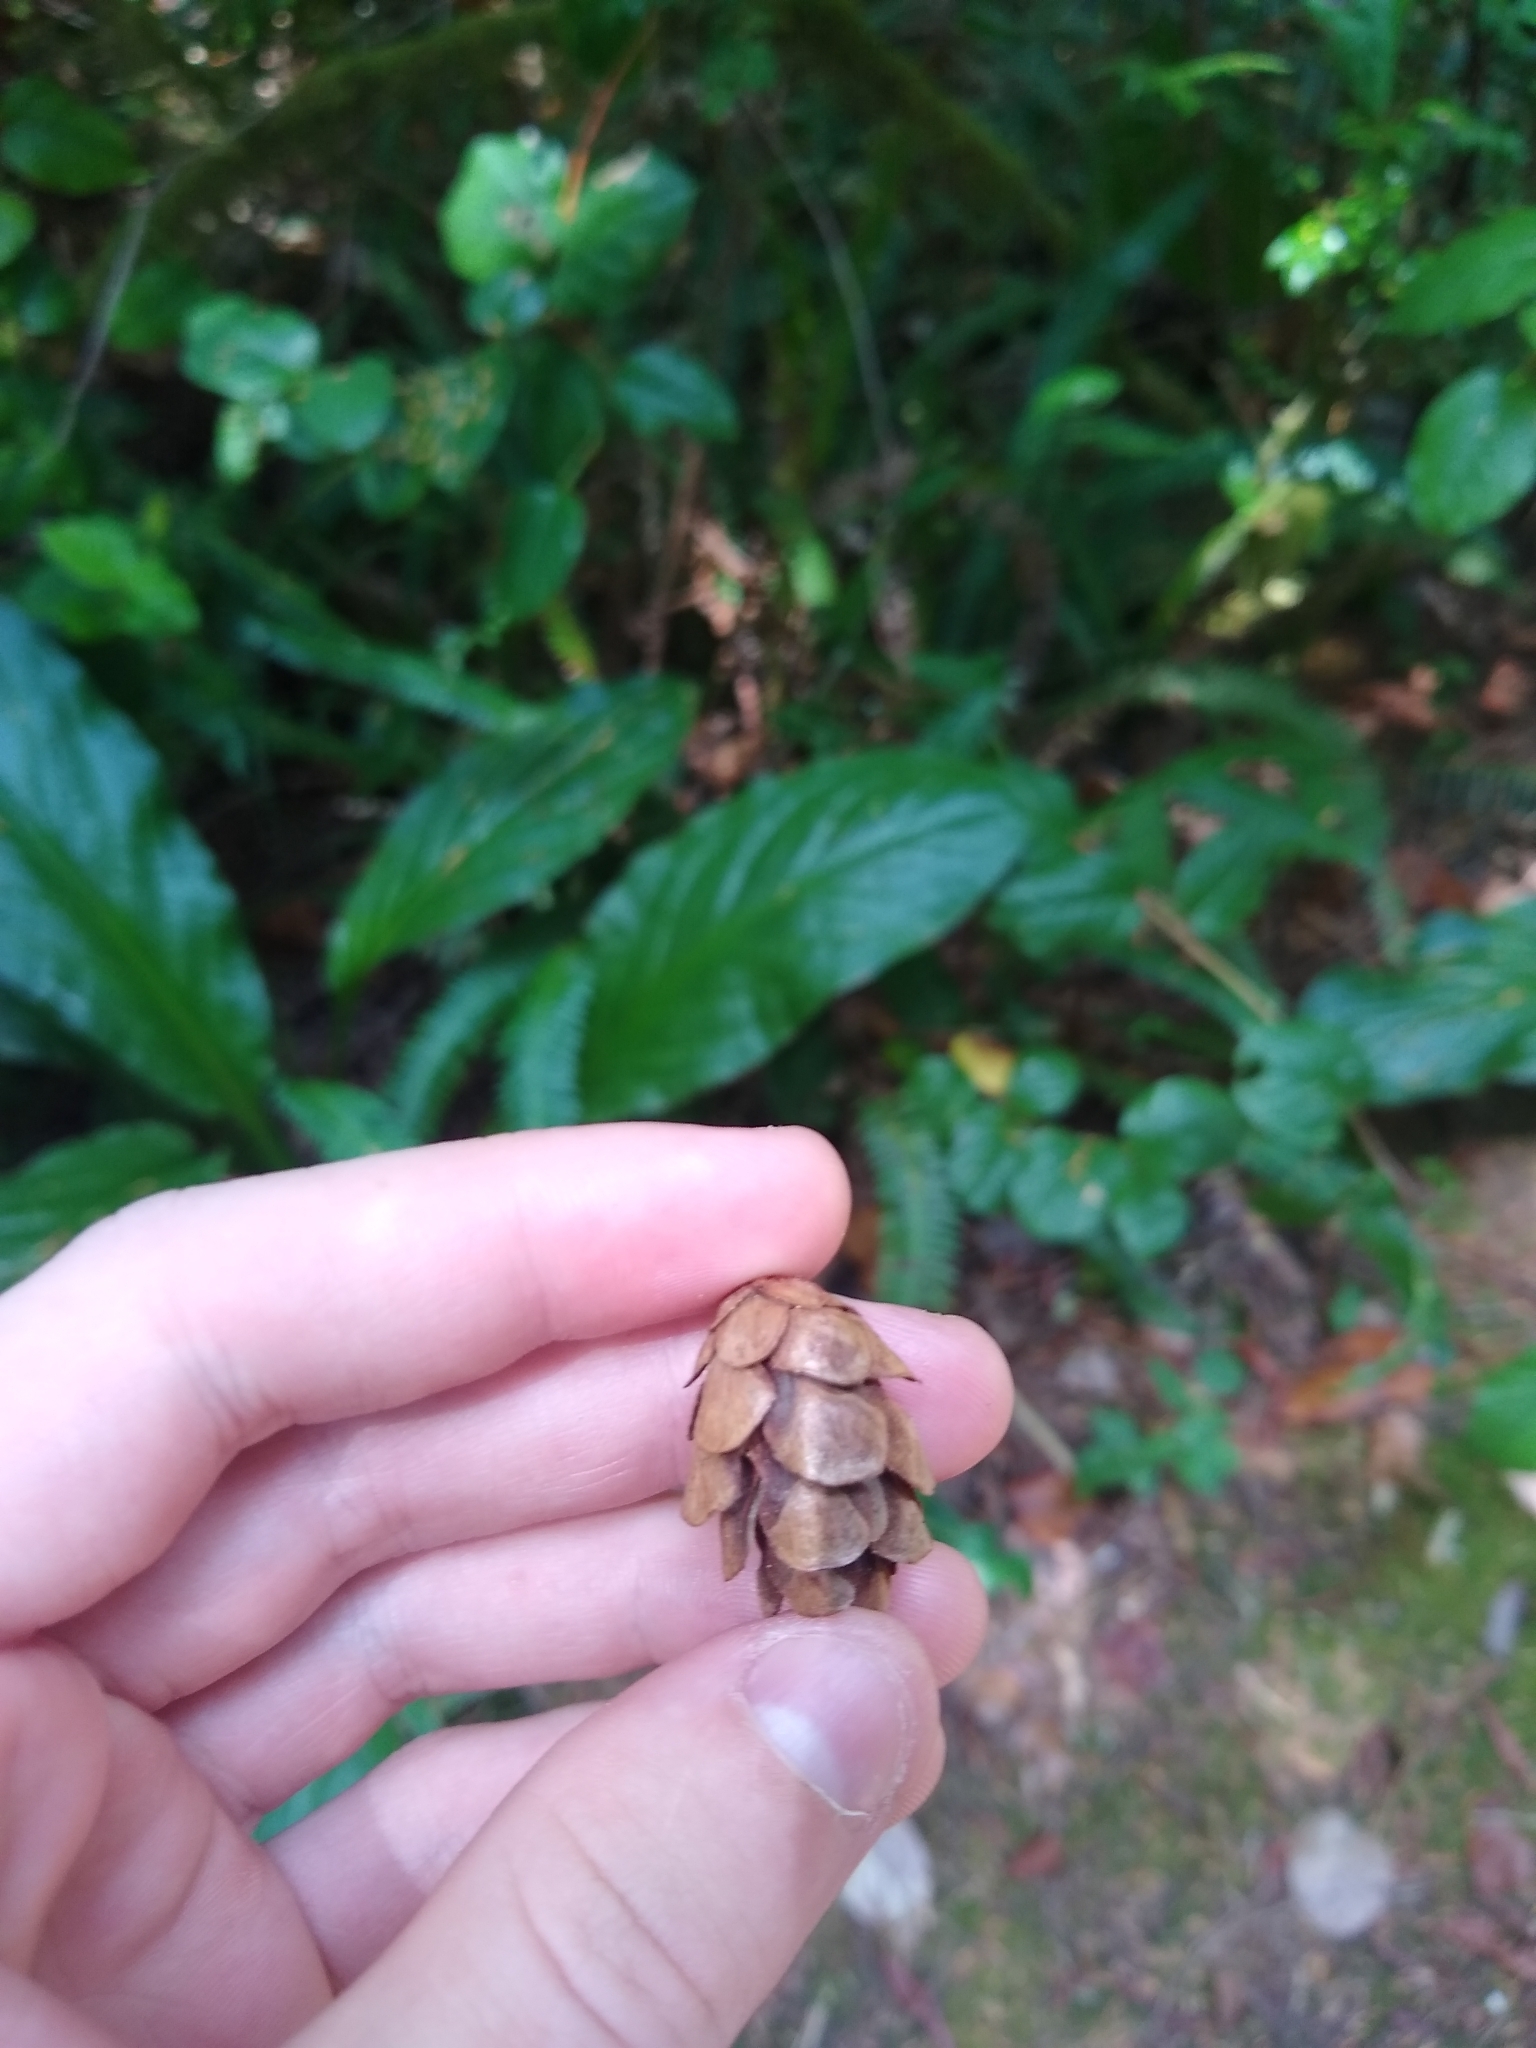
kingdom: Plantae
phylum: Tracheophyta
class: Pinopsida
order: Pinales
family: Pinaceae
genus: Tsuga
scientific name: Tsuga heterophylla
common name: Western hemlock
